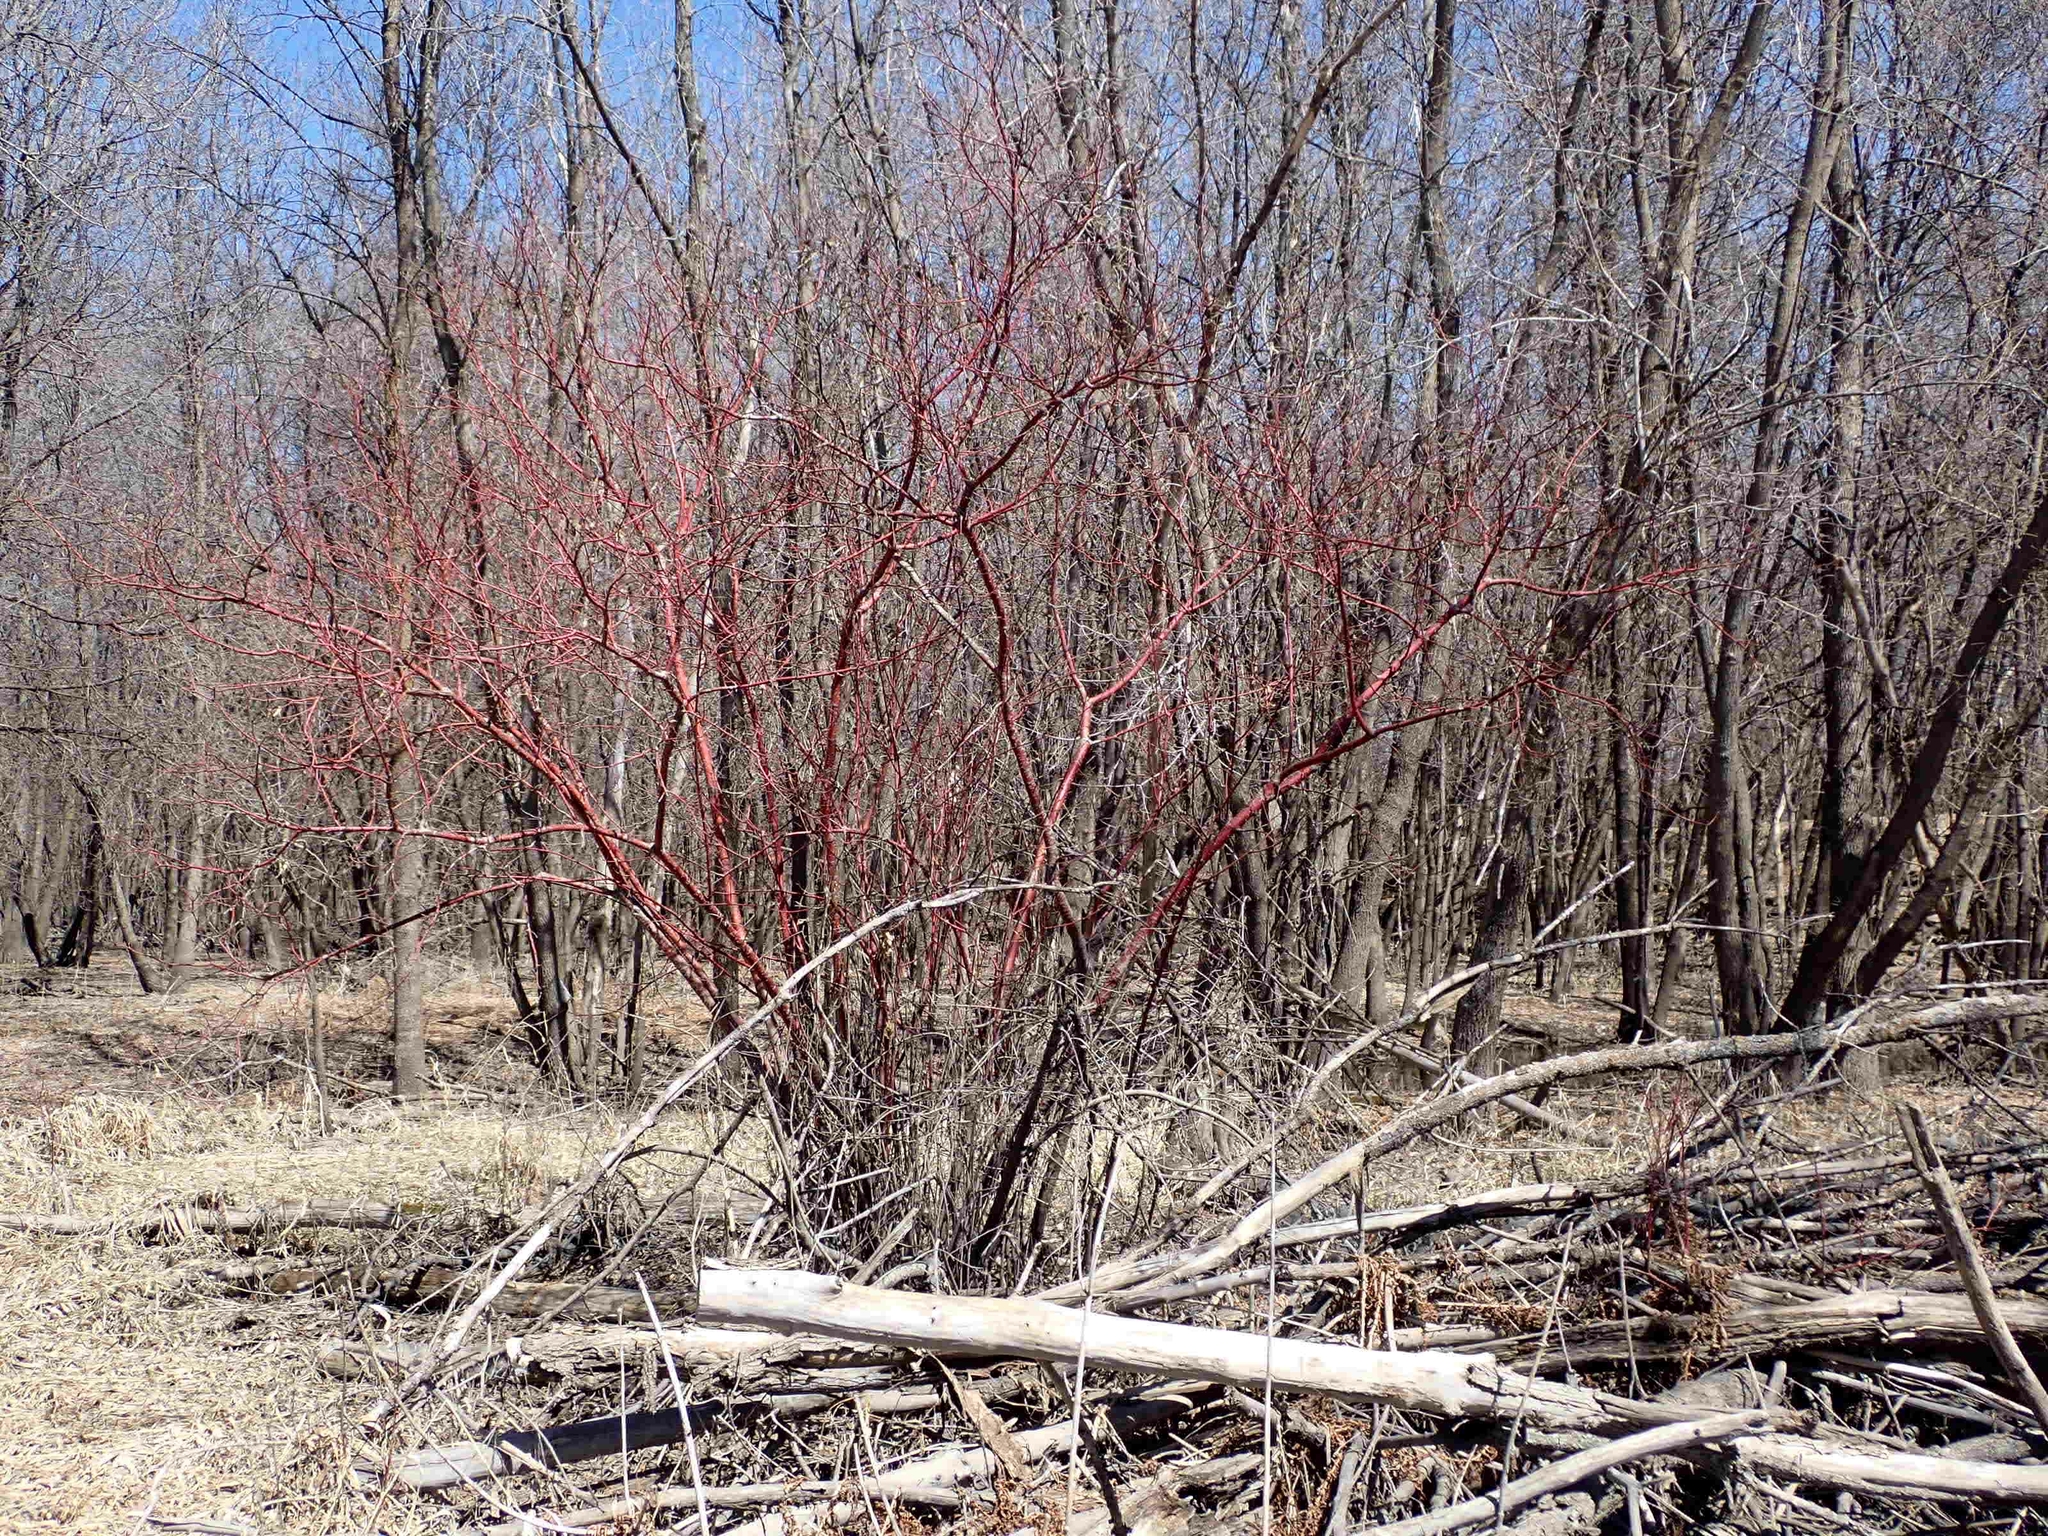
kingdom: Plantae
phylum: Tracheophyta
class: Magnoliopsida
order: Cornales
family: Cornaceae
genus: Cornus
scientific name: Cornus sericea
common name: Red-osier dogwood
